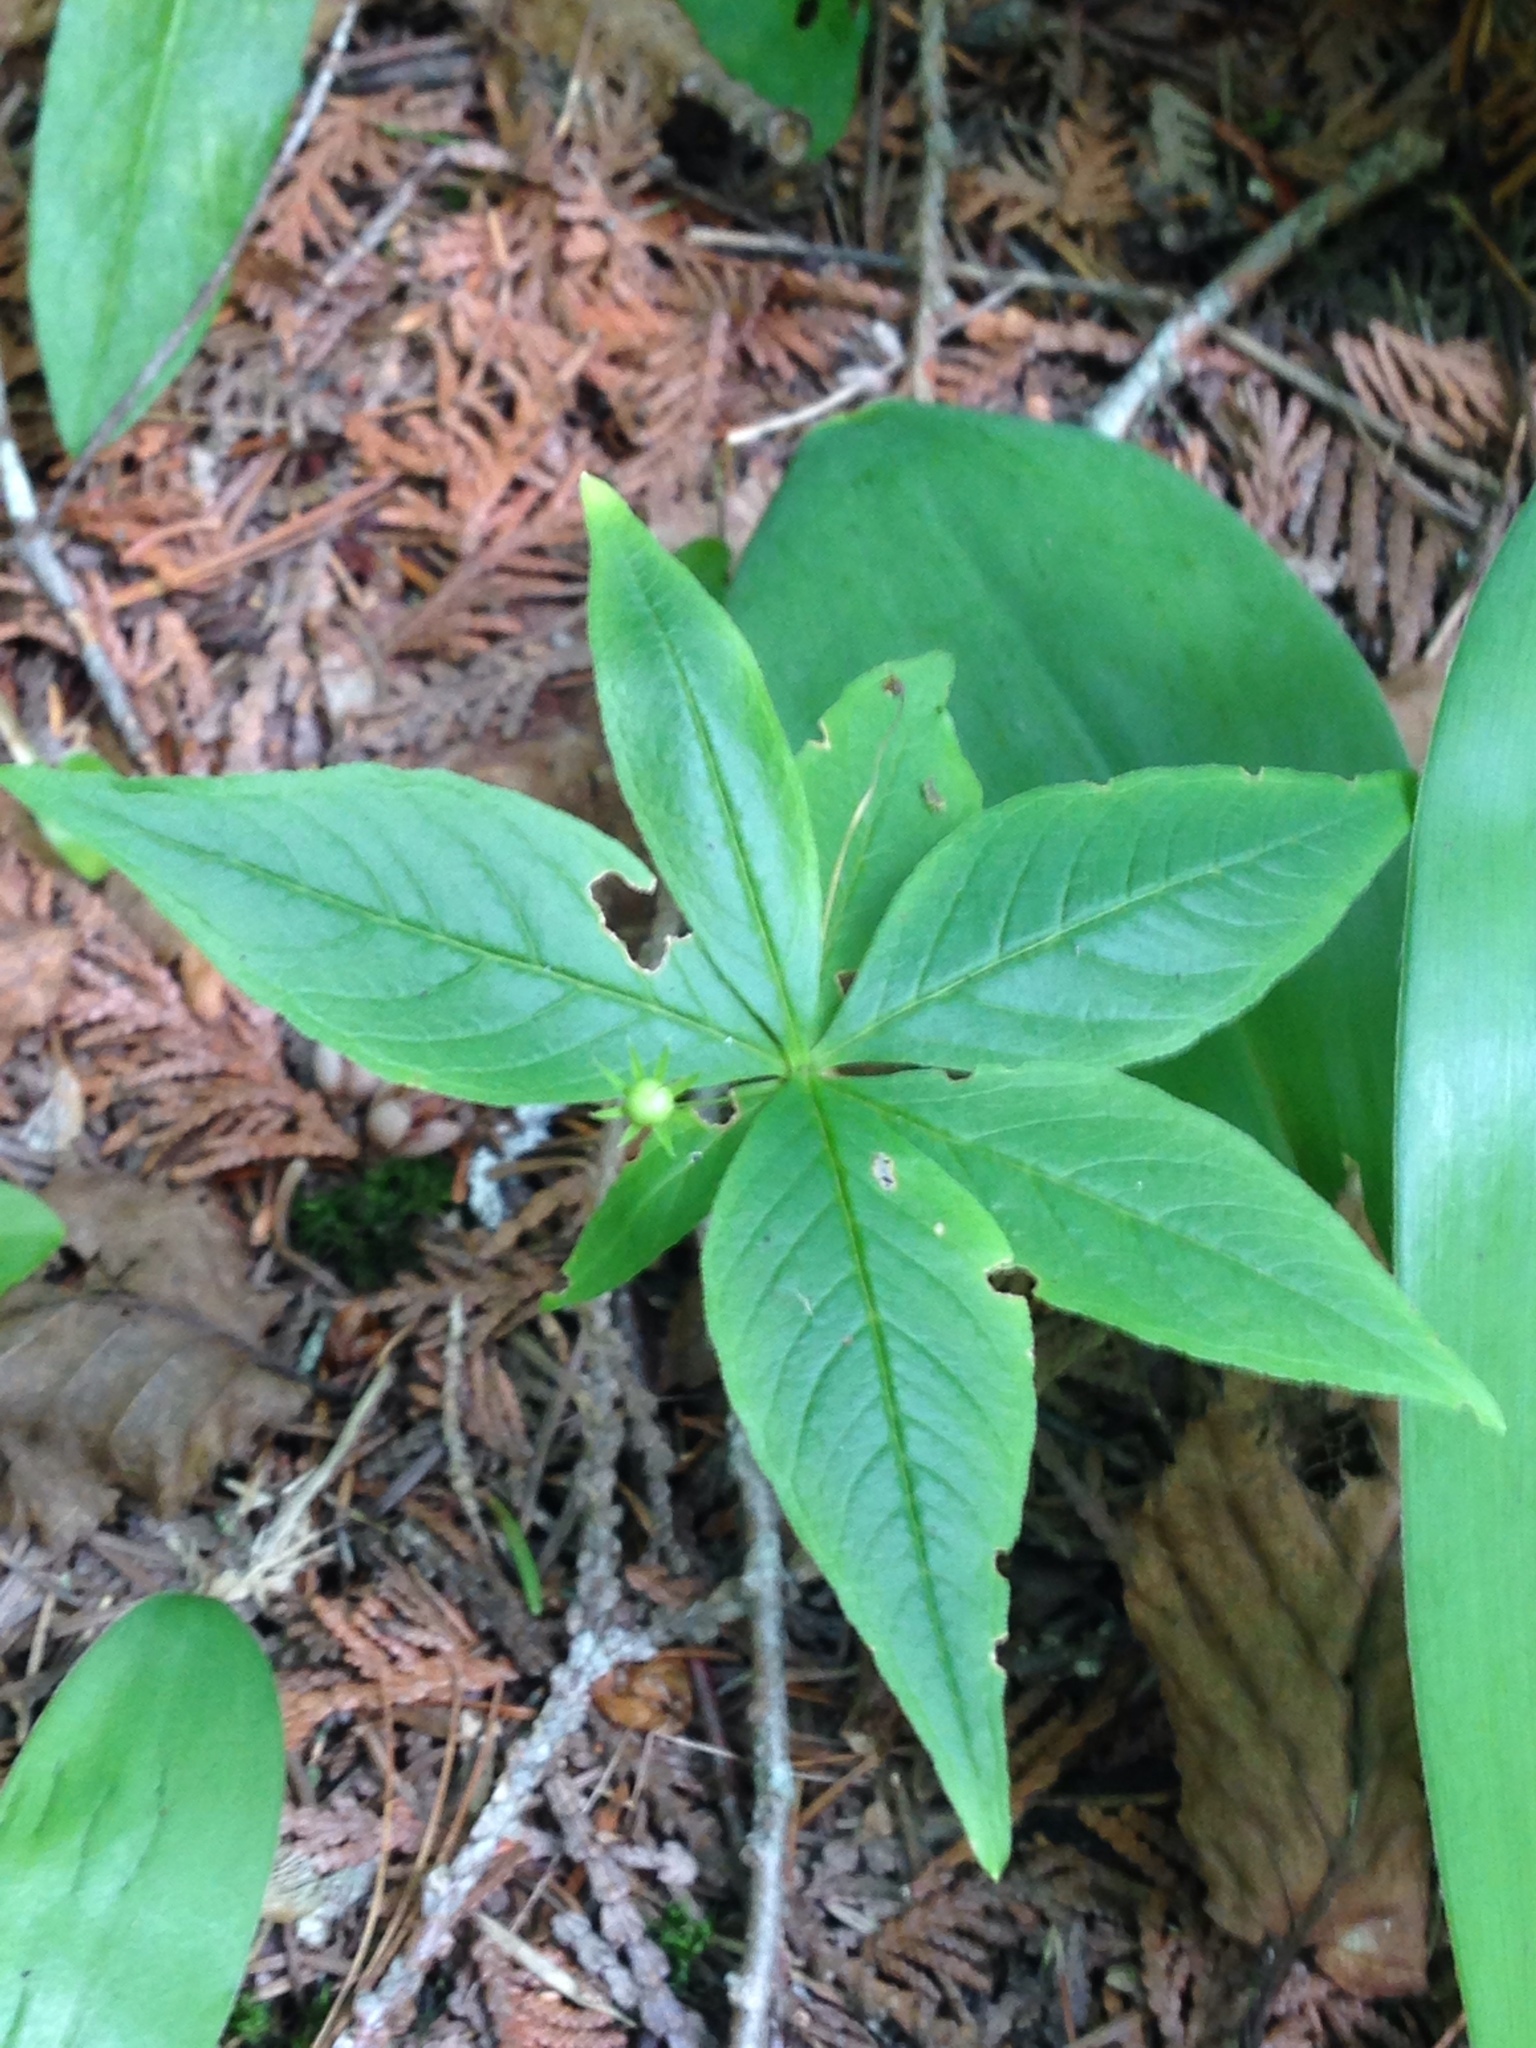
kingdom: Plantae
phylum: Tracheophyta
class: Magnoliopsida
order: Ericales
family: Primulaceae
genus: Lysimachia
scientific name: Lysimachia borealis
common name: American starflower
